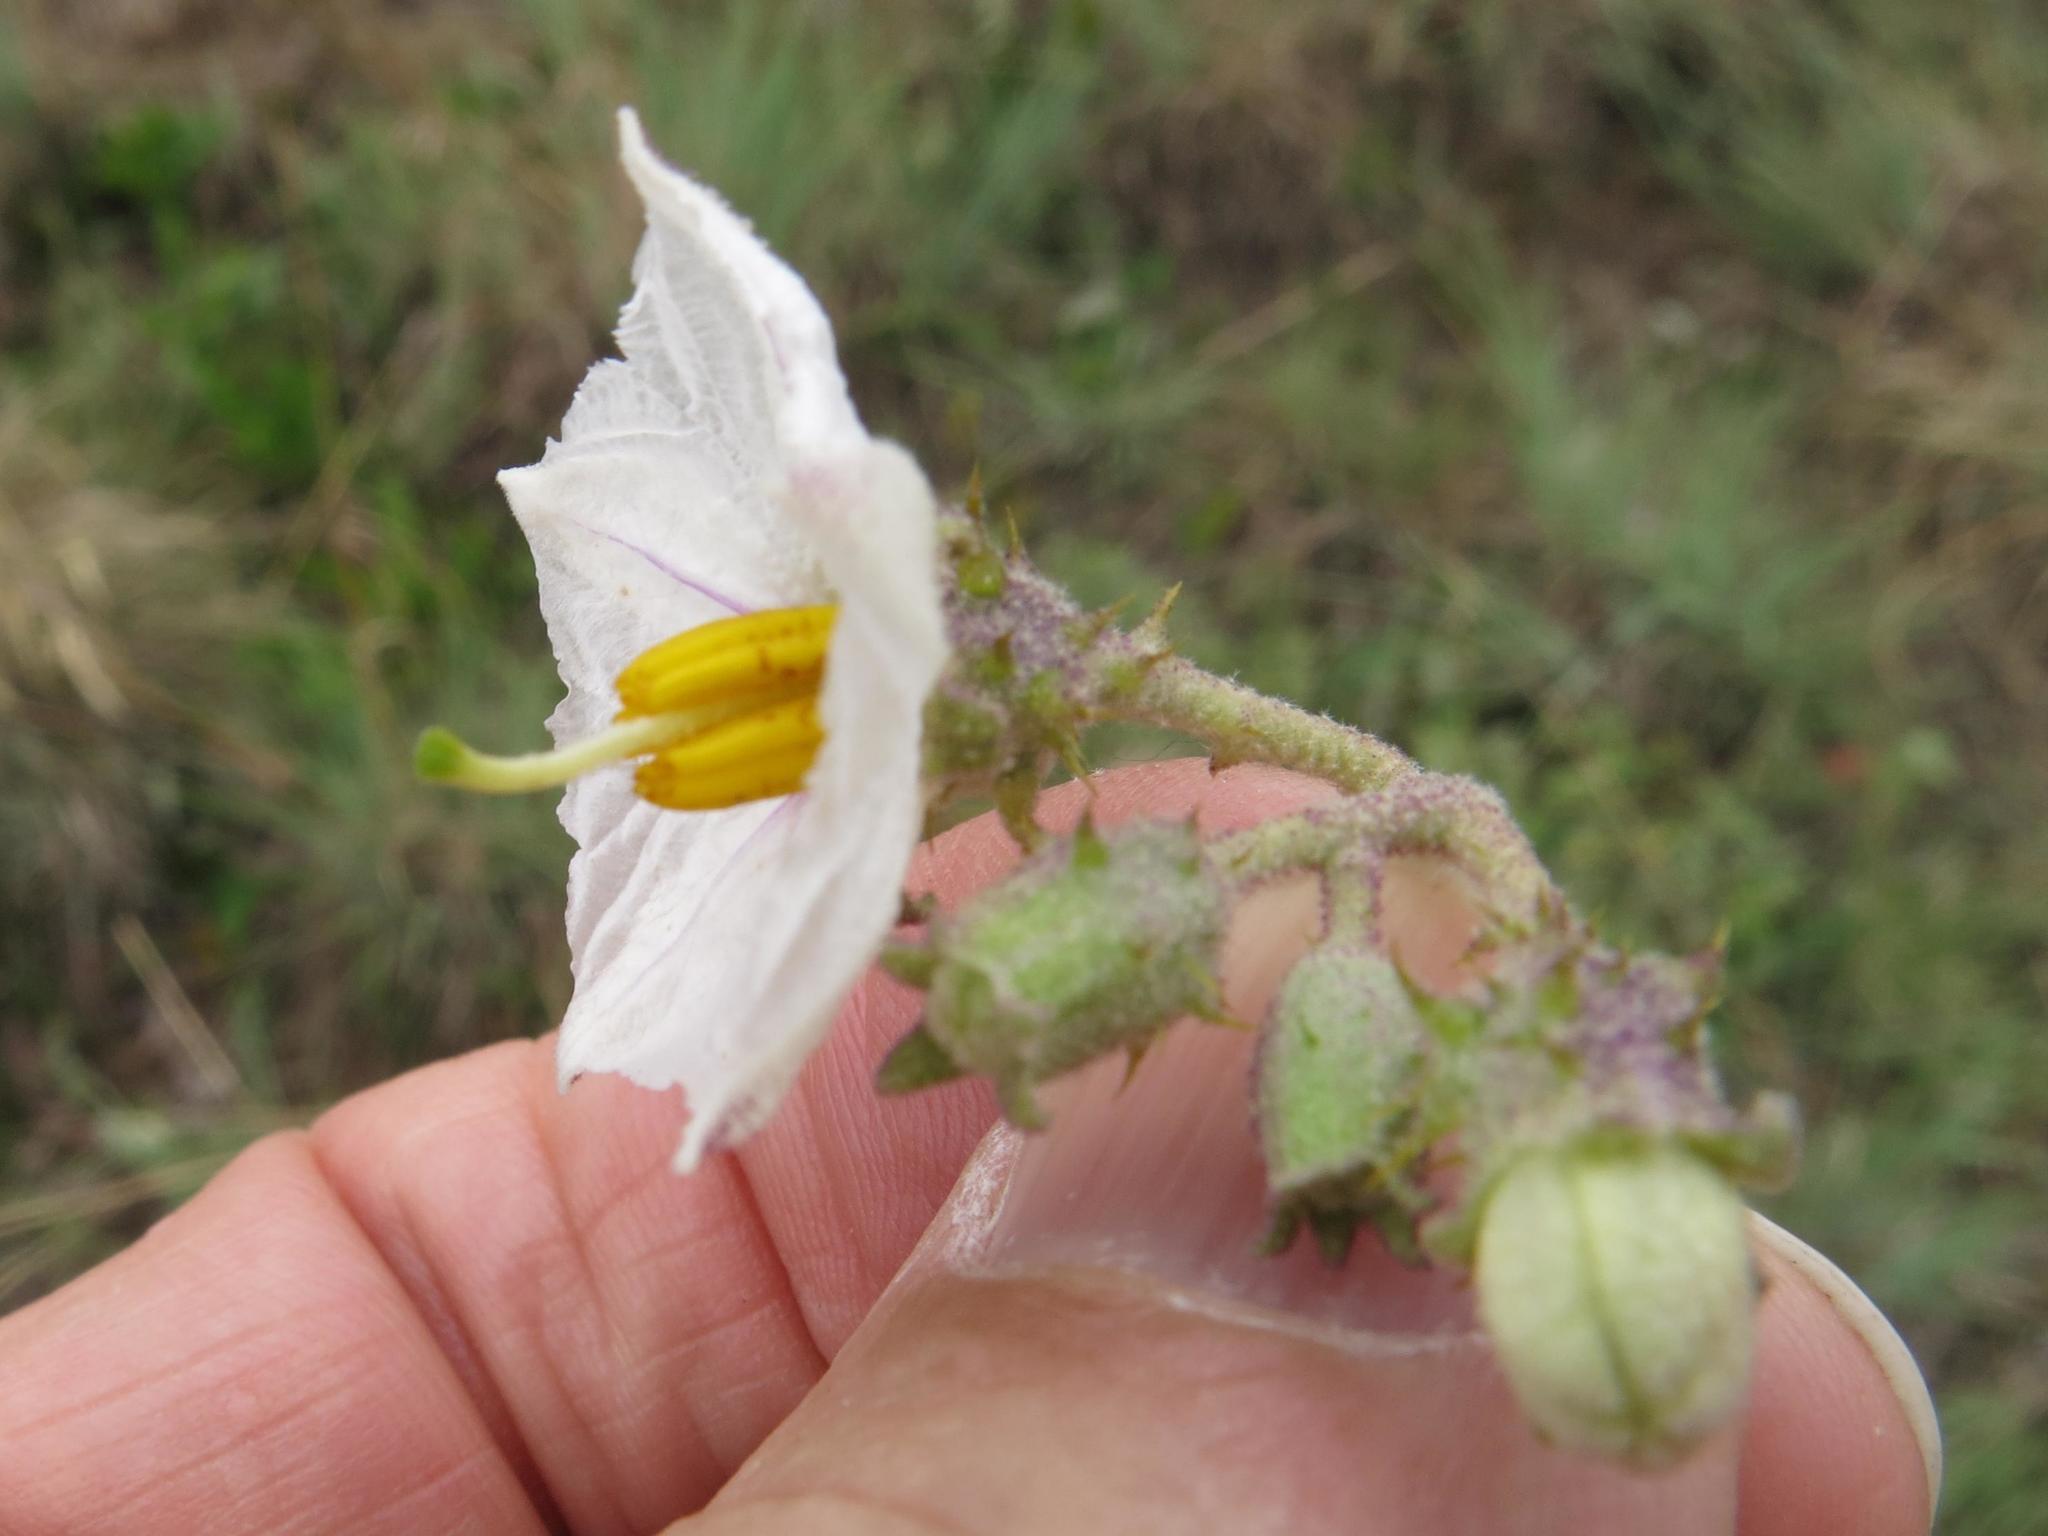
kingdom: Plantae
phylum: Tracheophyta
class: Magnoliopsida
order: Solanales
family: Solanaceae
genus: Solanum
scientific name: Solanum lichtensteinii
